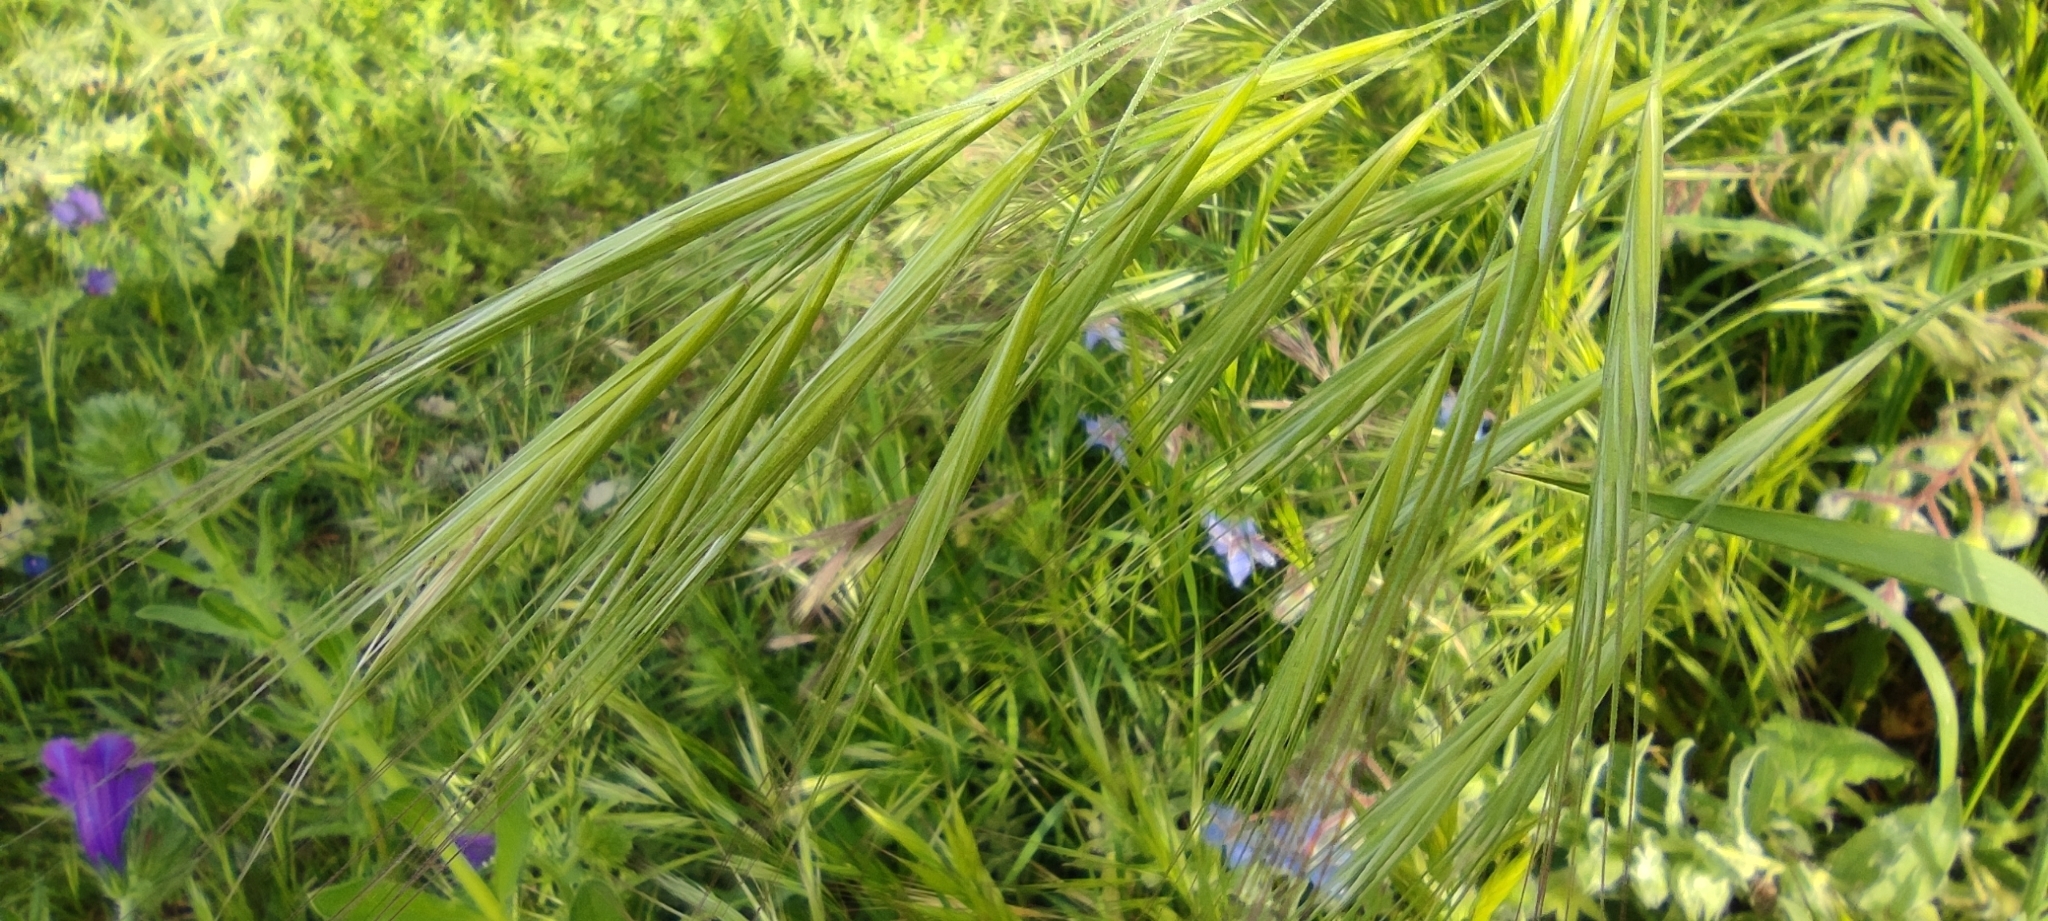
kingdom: Plantae
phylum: Tracheophyta
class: Liliopsida
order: Poales
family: Poaceae
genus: Bromus
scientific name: Bromus diandrus
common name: Ripgut brome
